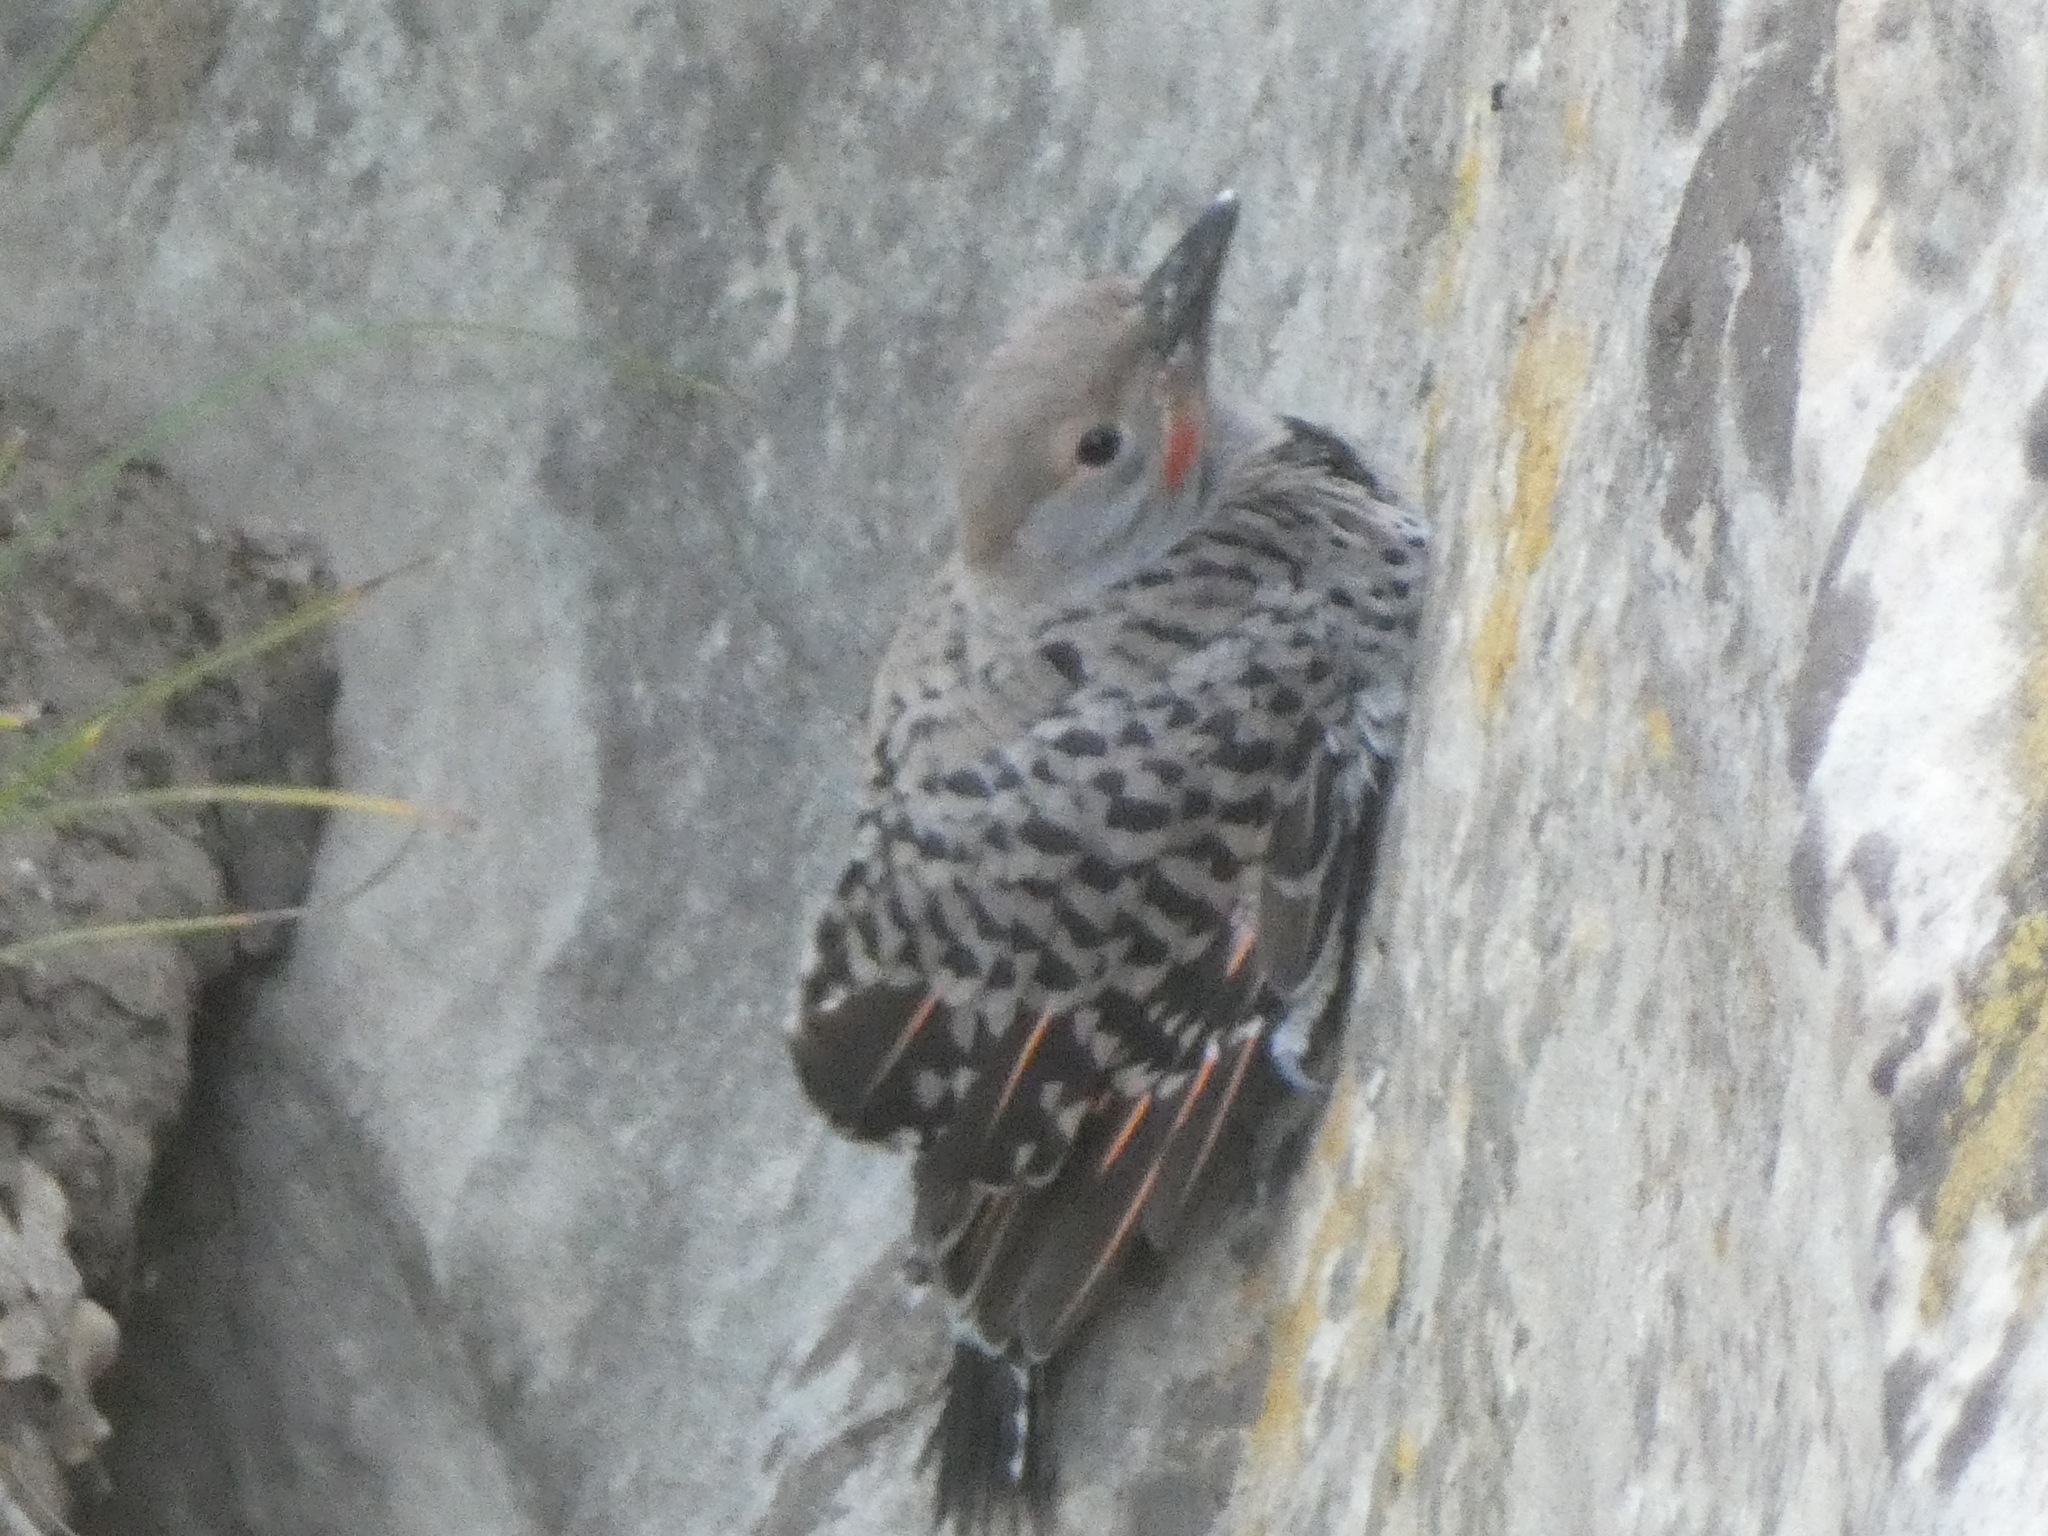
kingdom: Animalia
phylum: Chordata
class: Aves
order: Piciformes
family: Picidae
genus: Colaptes
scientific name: Colaptes auratus
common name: Northern flicker
